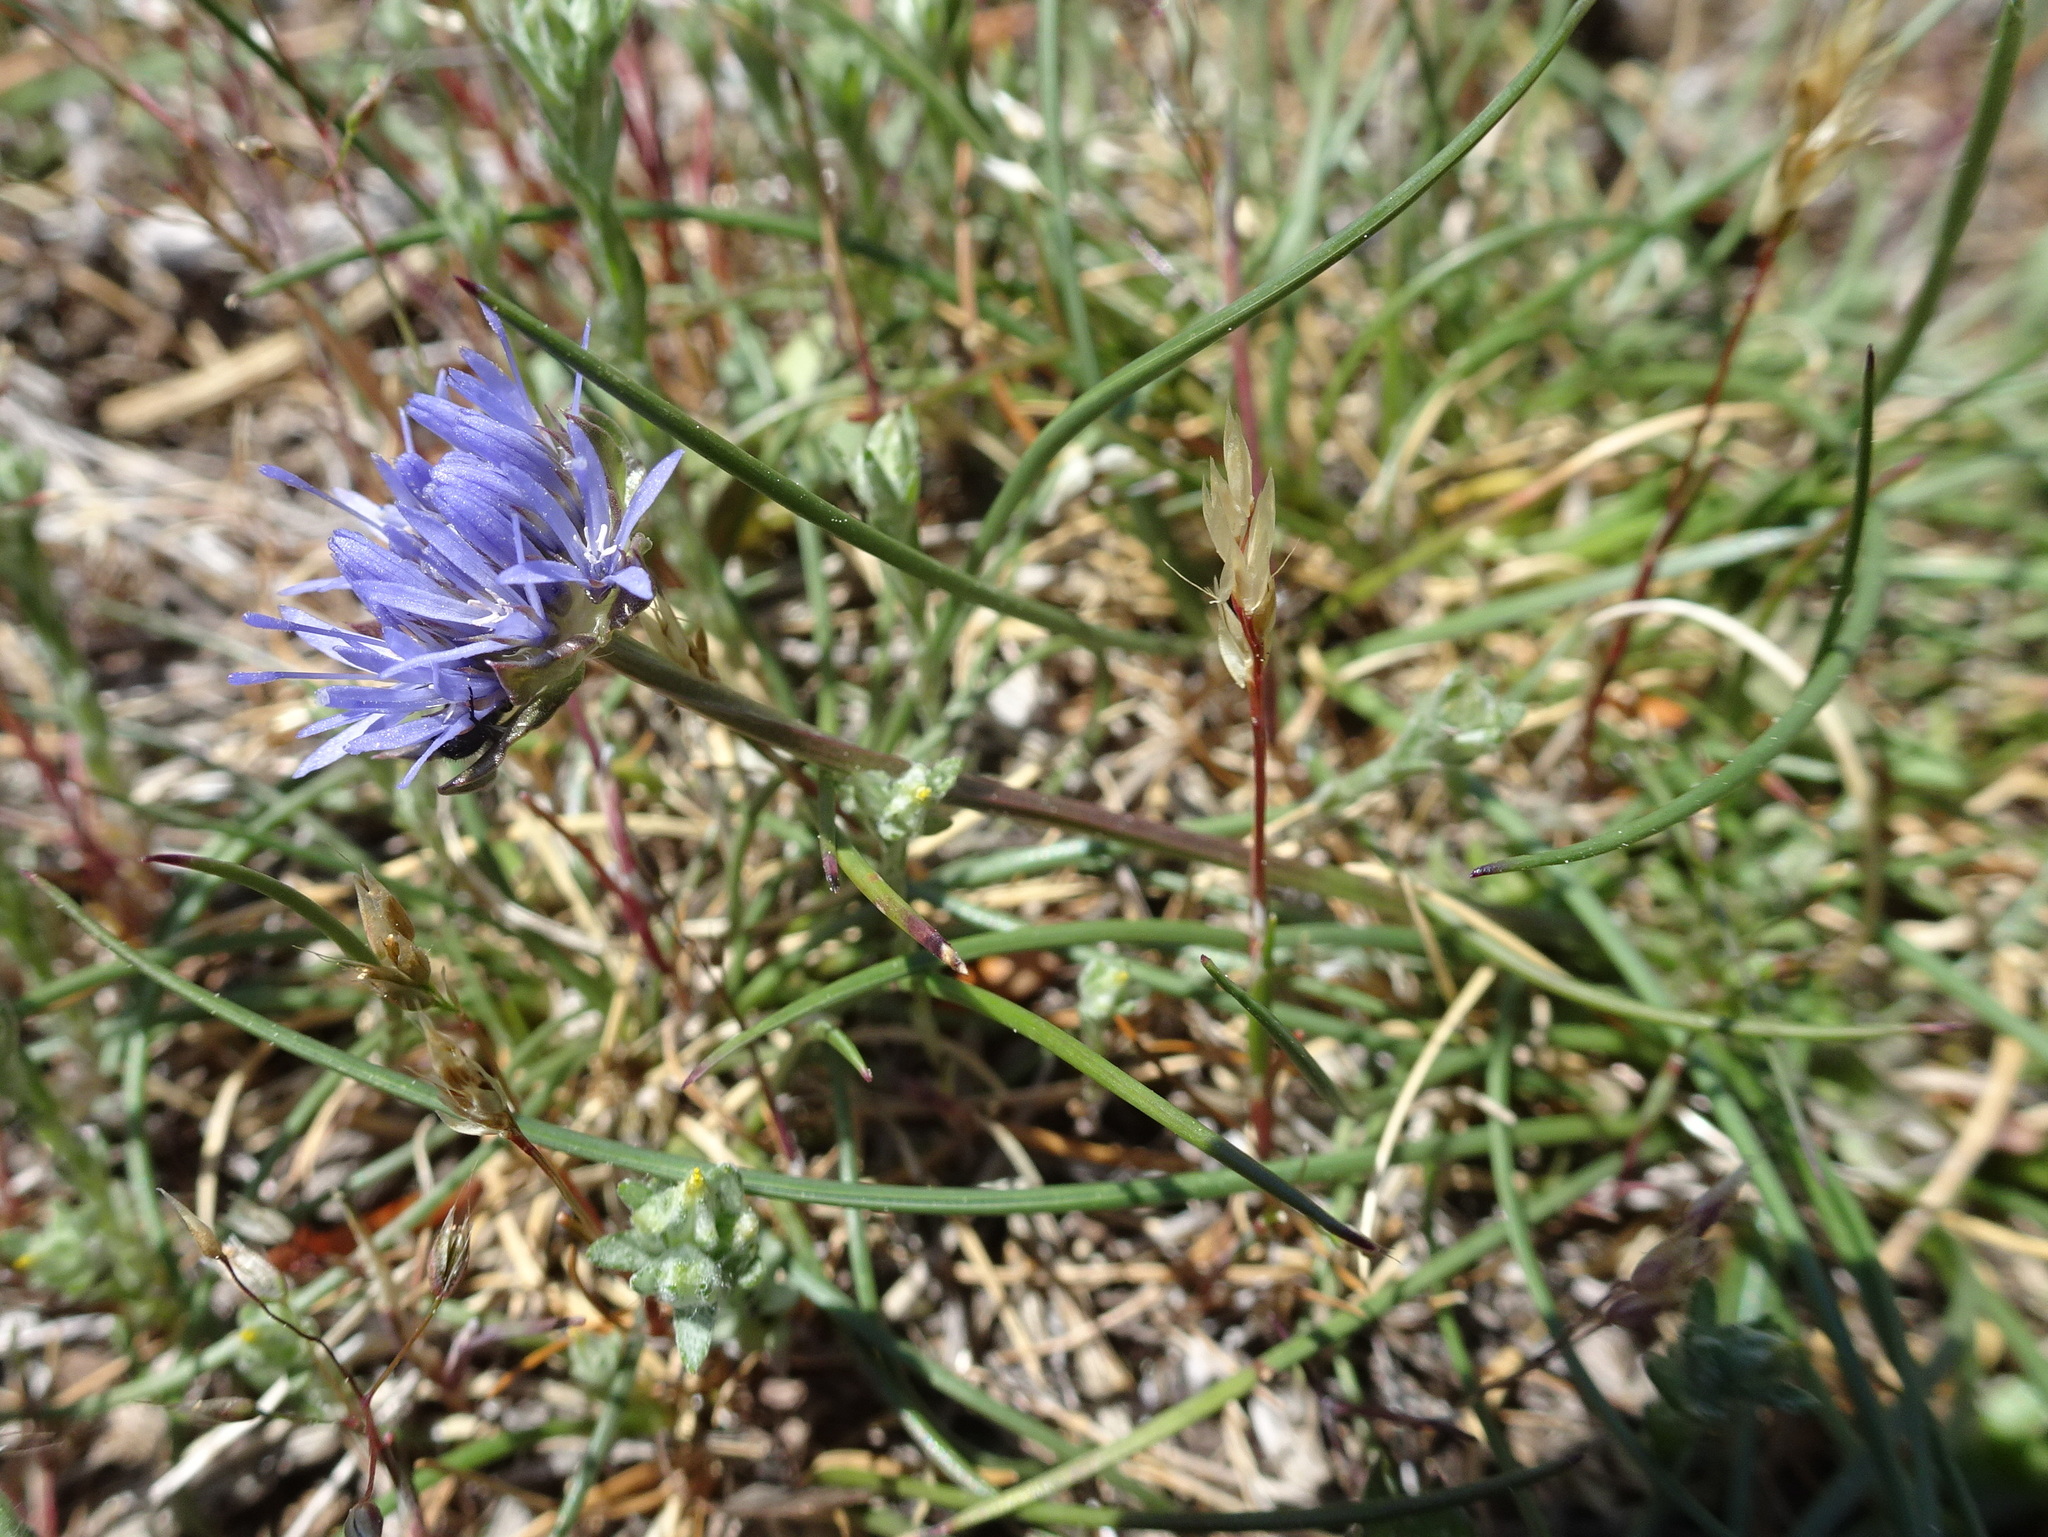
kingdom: Plantae
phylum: Tracheophyta
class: Magnoliopsida
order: Asterales
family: Campanulaceae
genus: Jasione
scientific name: Jasione montana
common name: Sheep's-bit
